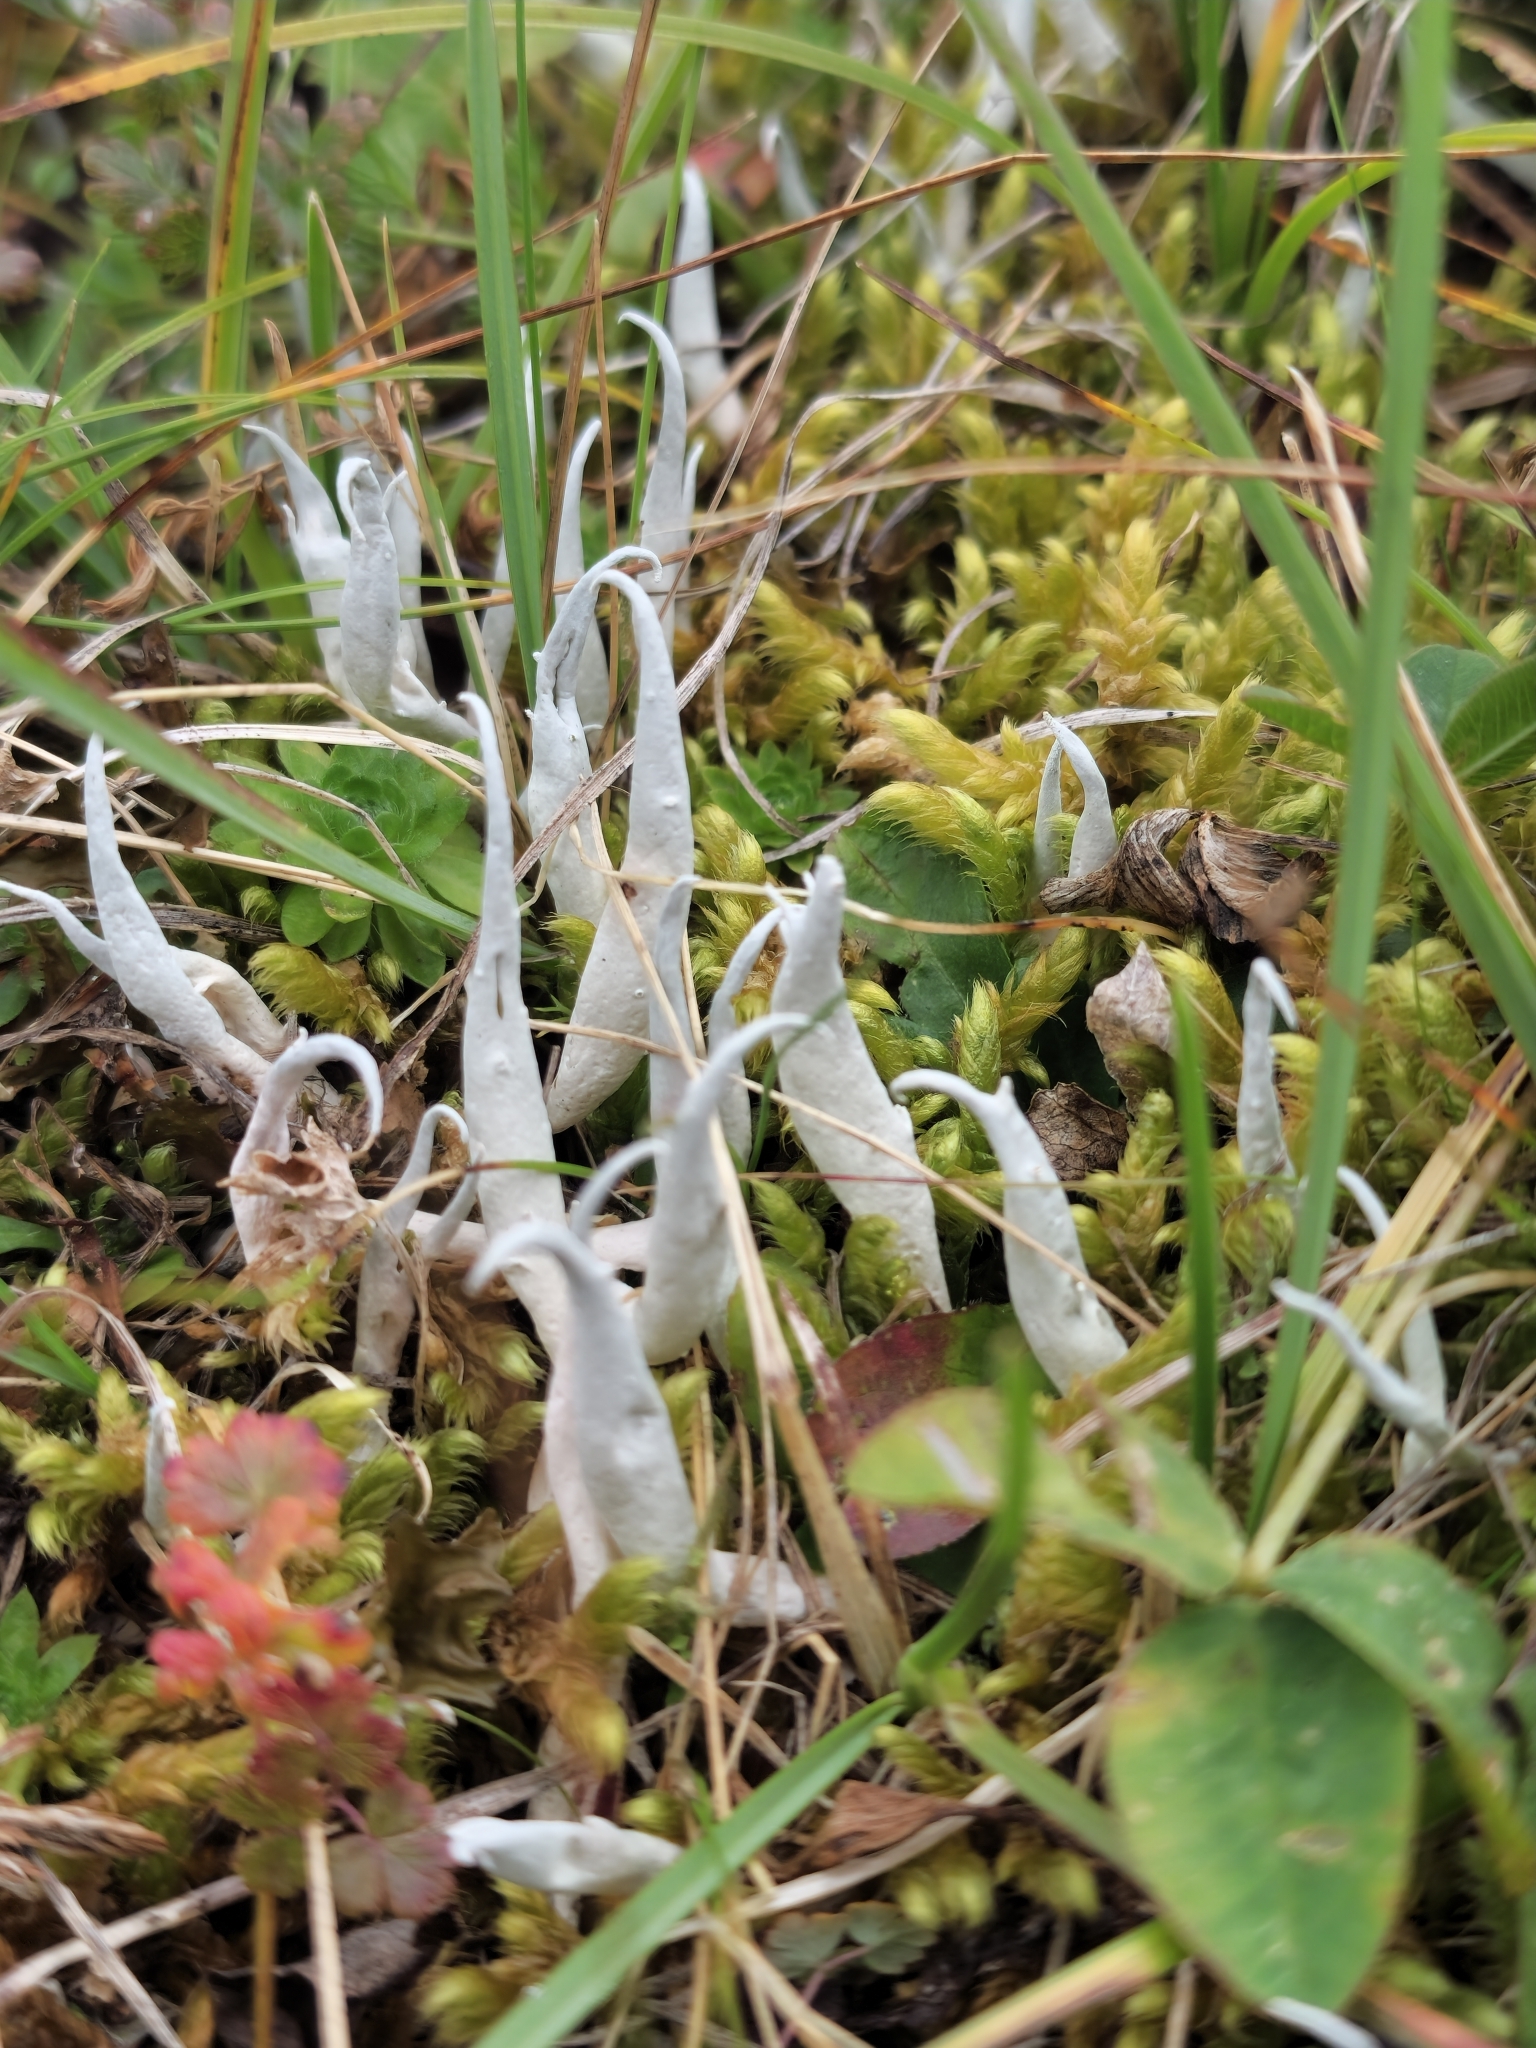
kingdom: Fungi
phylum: Ascomycota
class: Lecanoromycetes
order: Pertusariales
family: Icmadophilaceae
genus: Thamnolia
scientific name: Thamnolia vermicularis
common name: Whiteworm lichen
